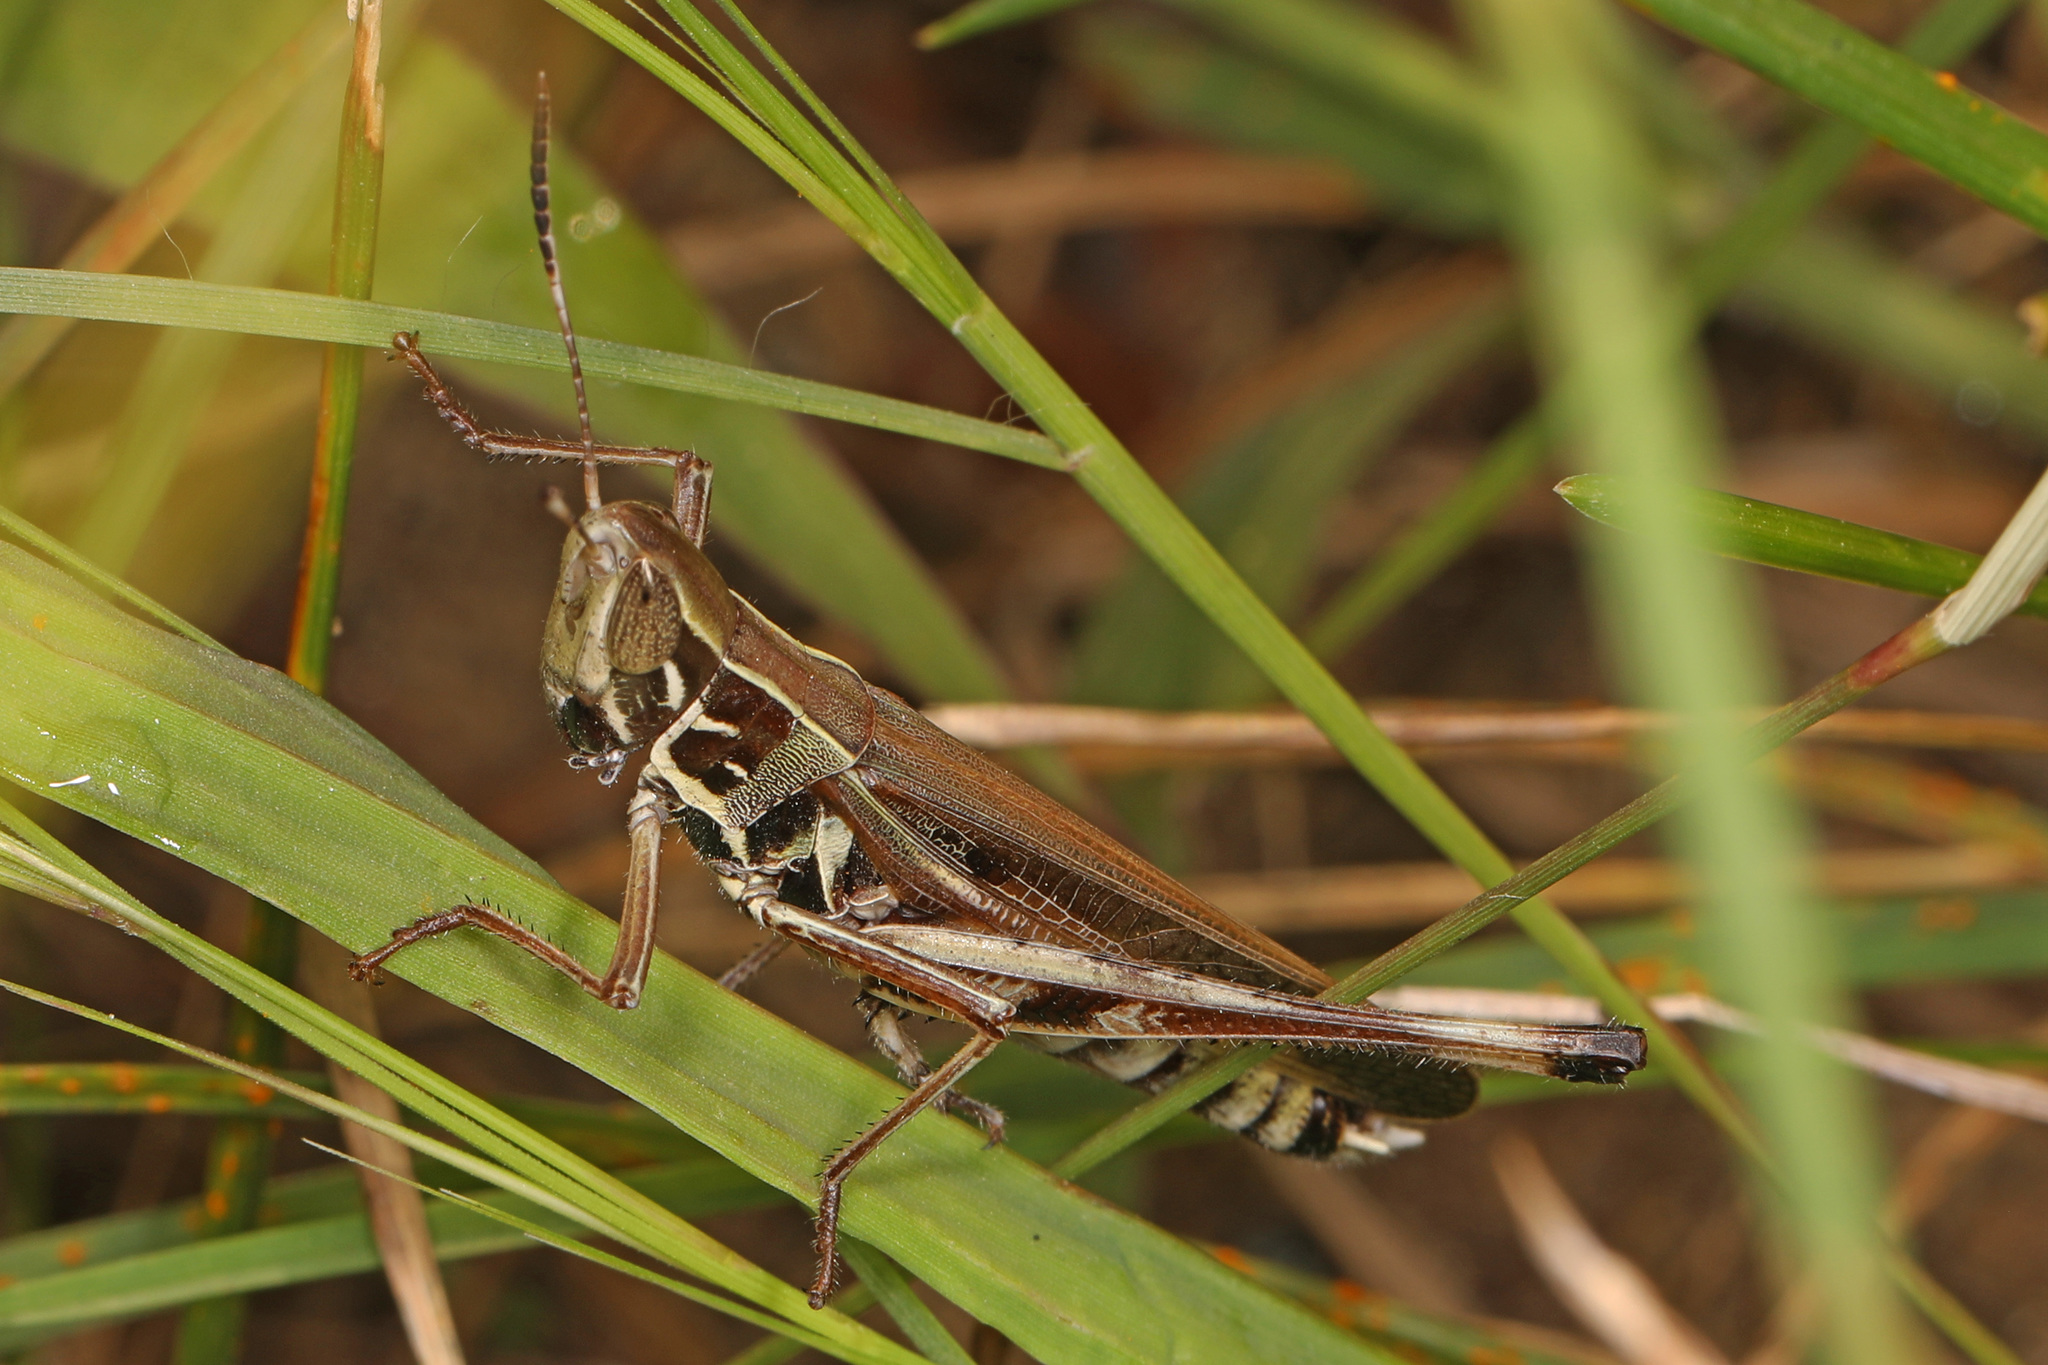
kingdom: Animalia
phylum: Arthropoda
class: Insecta
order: Orthoptera
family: Acrididae
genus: Syrbula
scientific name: Syrbula admirabilis
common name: Handsome grasshopper
